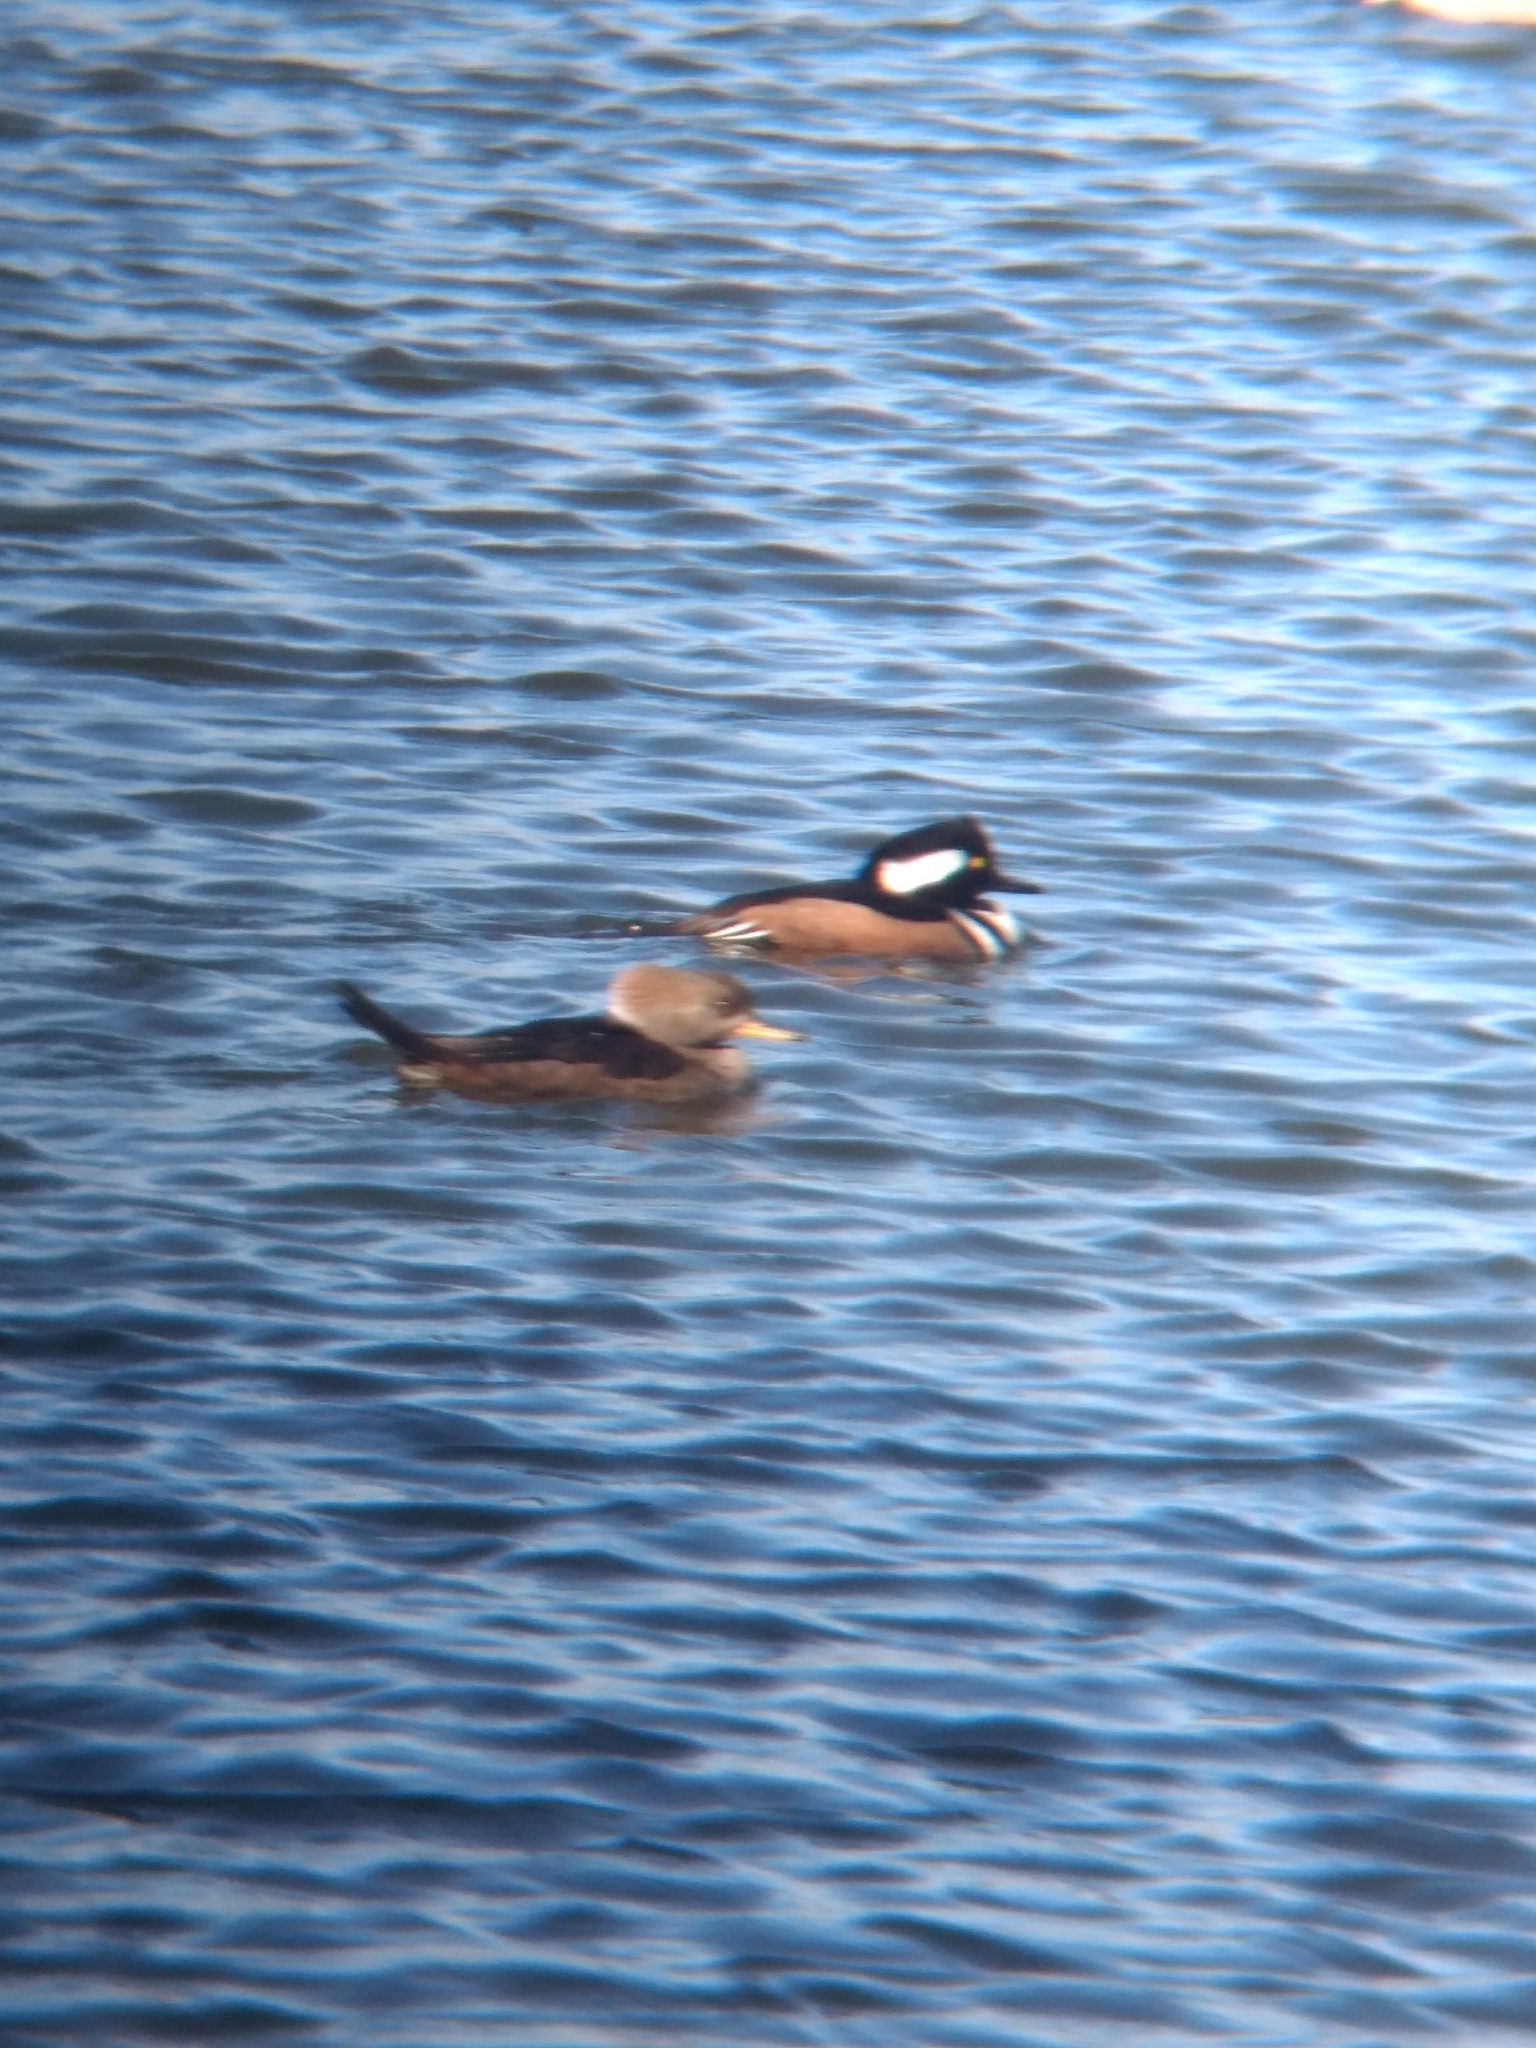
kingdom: Animalia
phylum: Chordata
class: Aves
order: Anseriformes
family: Anatidae
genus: Lophodytes
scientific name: Lophodytes cucullatus
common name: Hooded merganser
